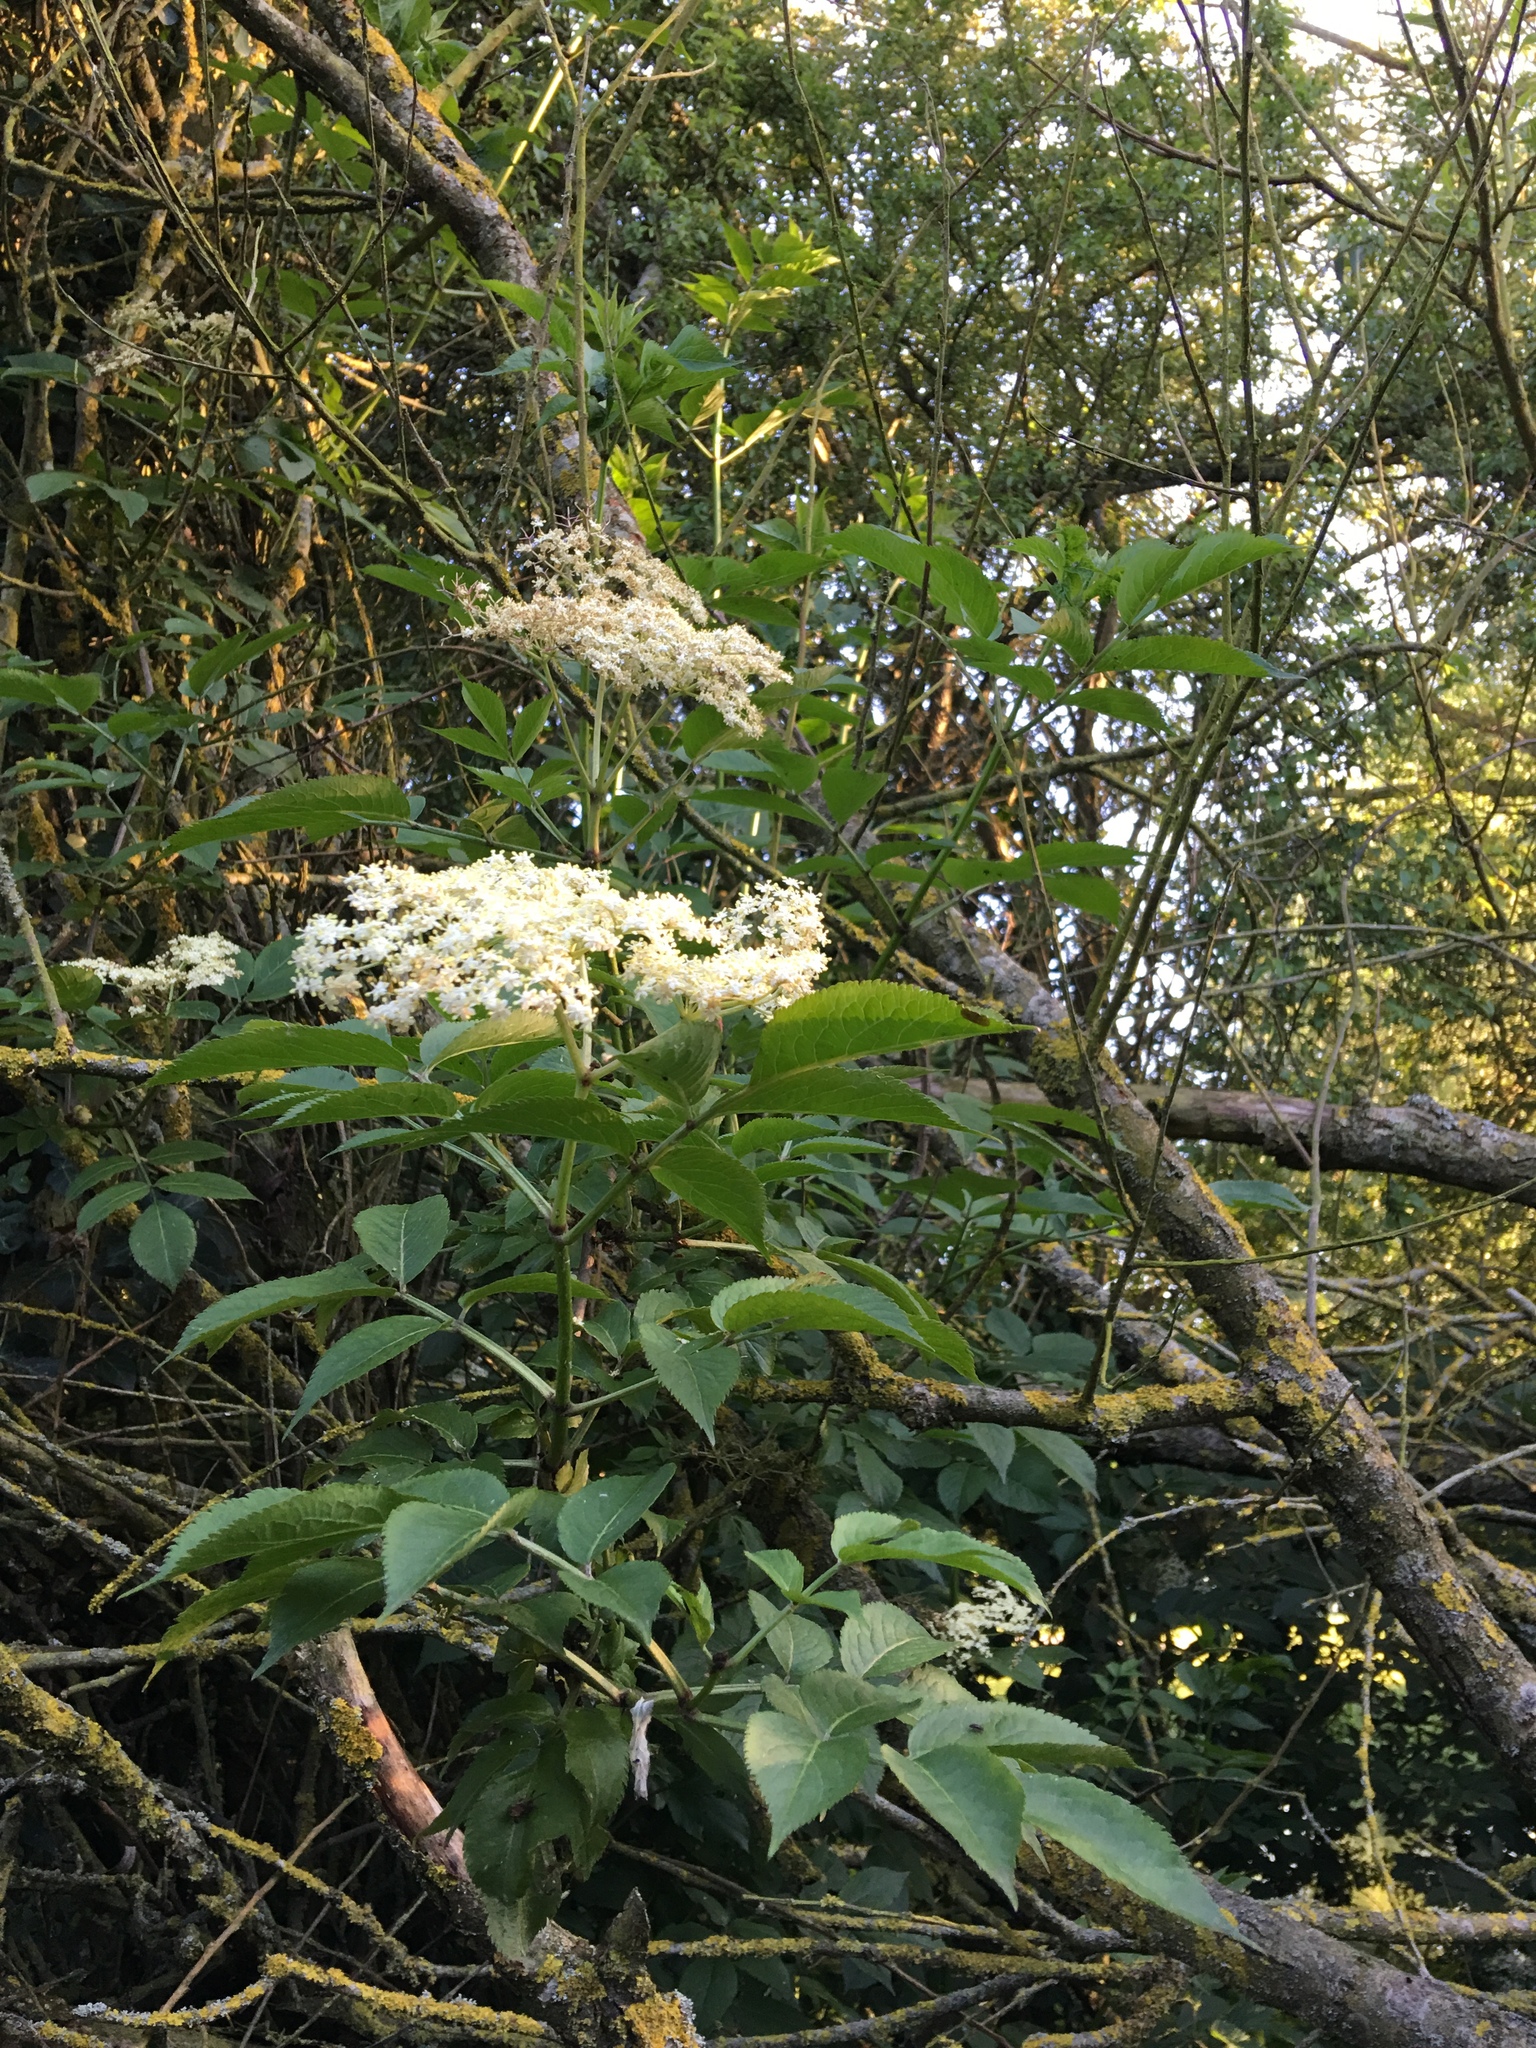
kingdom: Plantae
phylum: Tracheophyta
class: Magnoliopsida
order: Dipsacales
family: Viburnaceae
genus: Sambucus
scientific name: Sambucus nigra
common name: Elder
